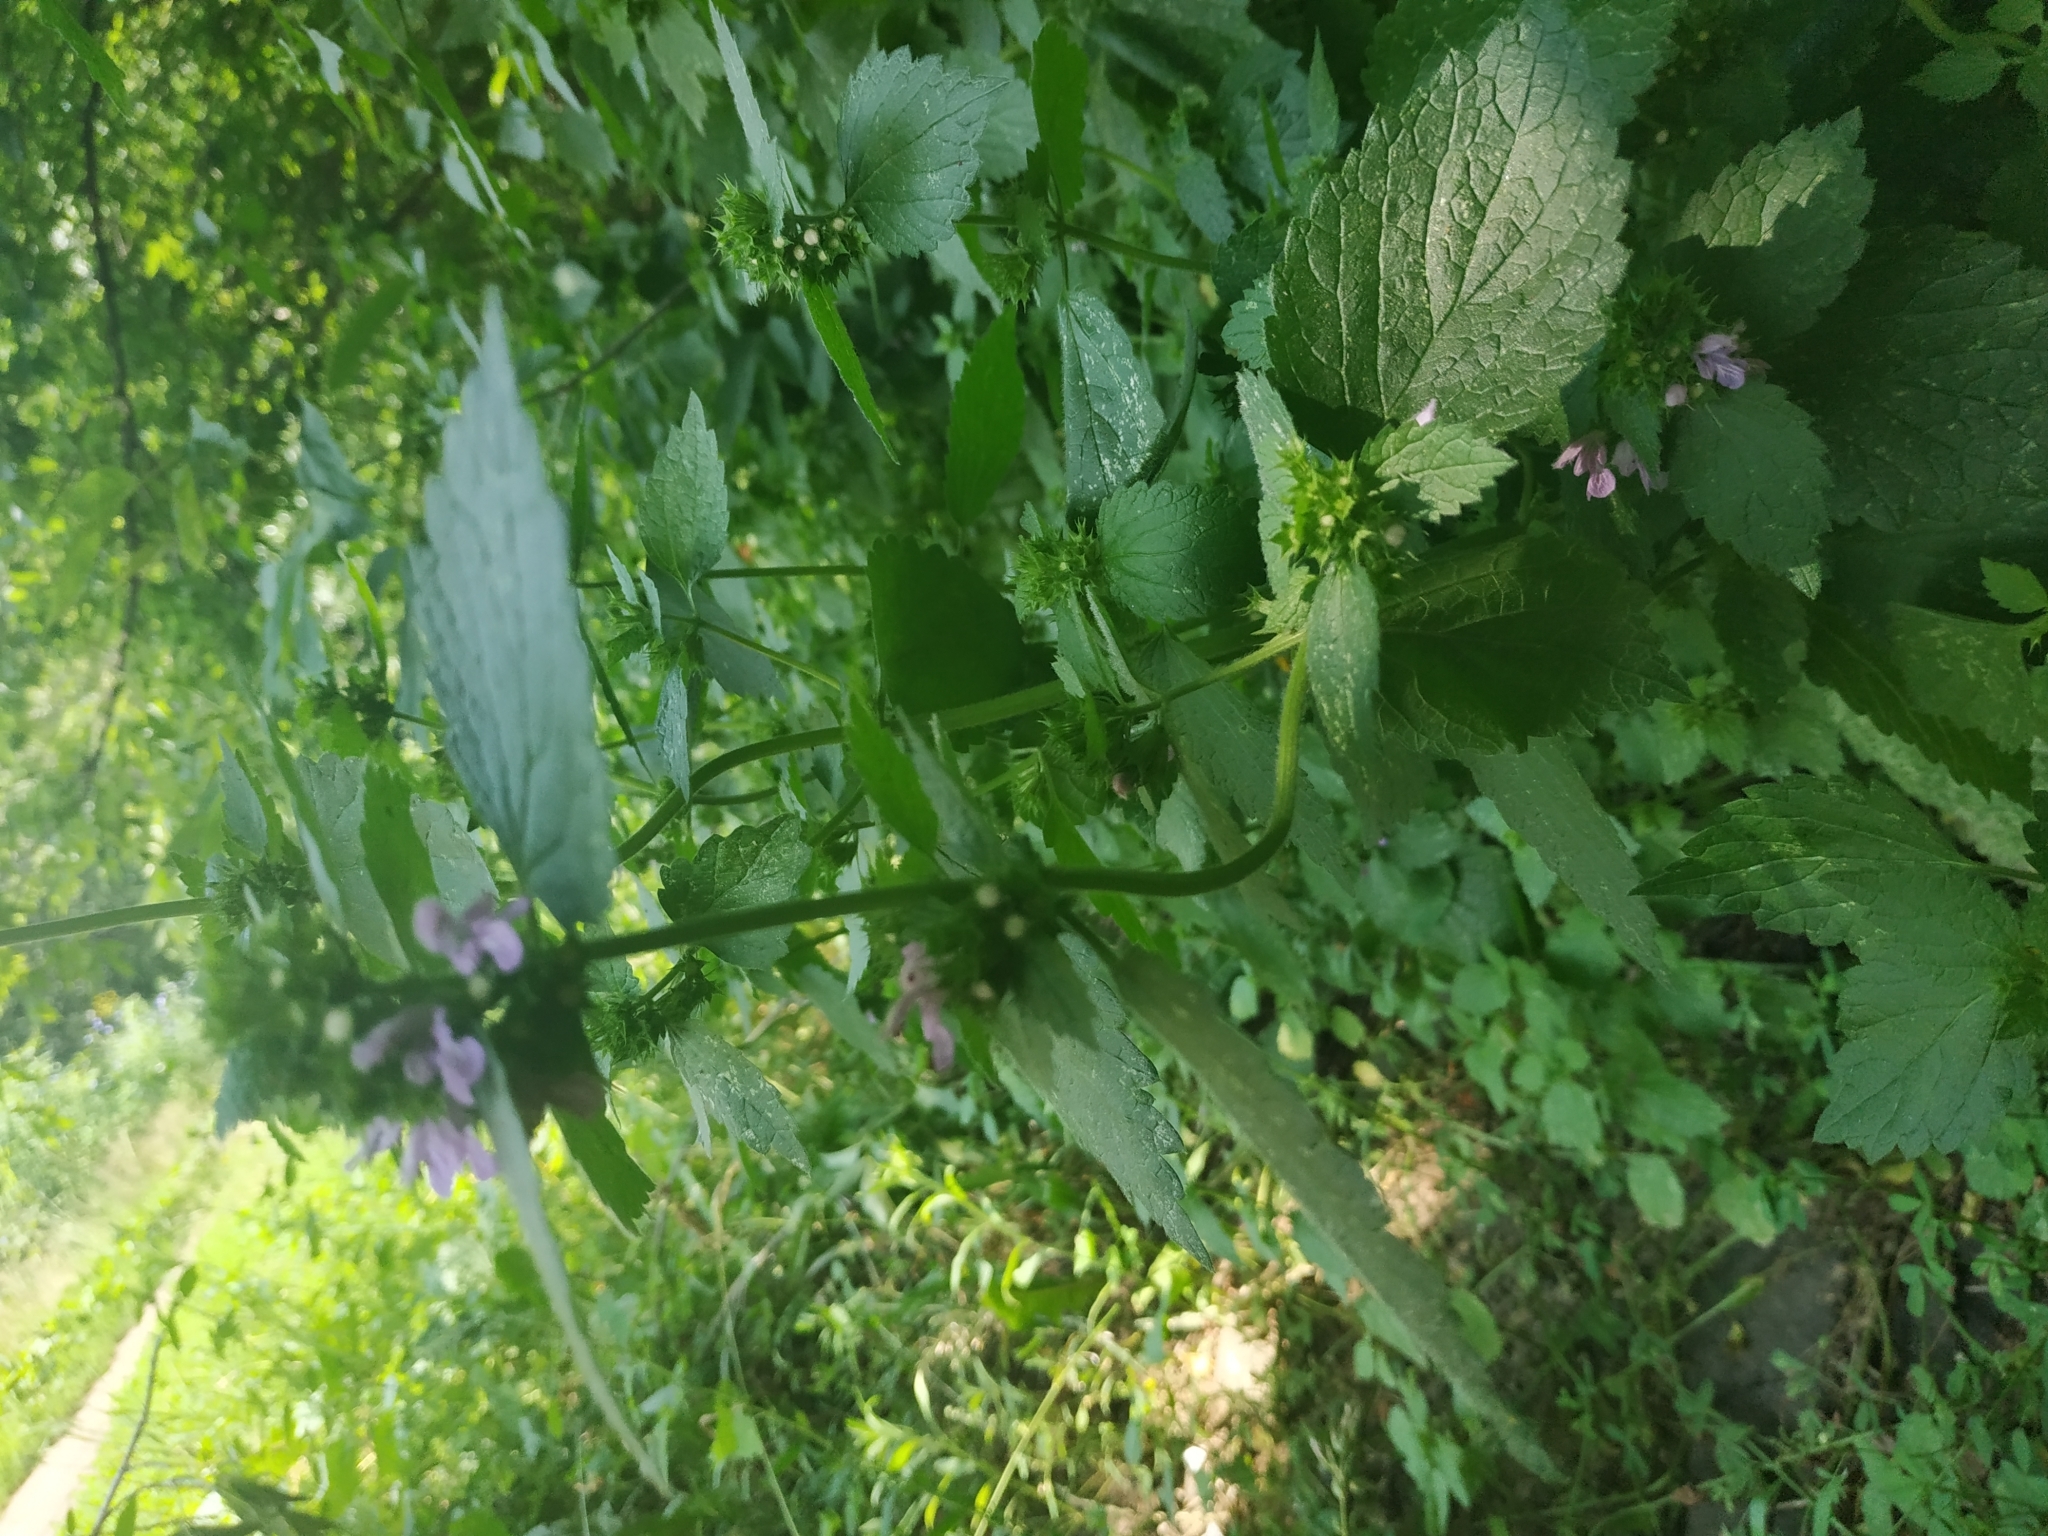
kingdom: Plantae
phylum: Tracheophyta
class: Magnoliopsida
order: Lamiales
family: Lamiaceae
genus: Ballota
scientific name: Ballota nigra
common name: Black horehound
